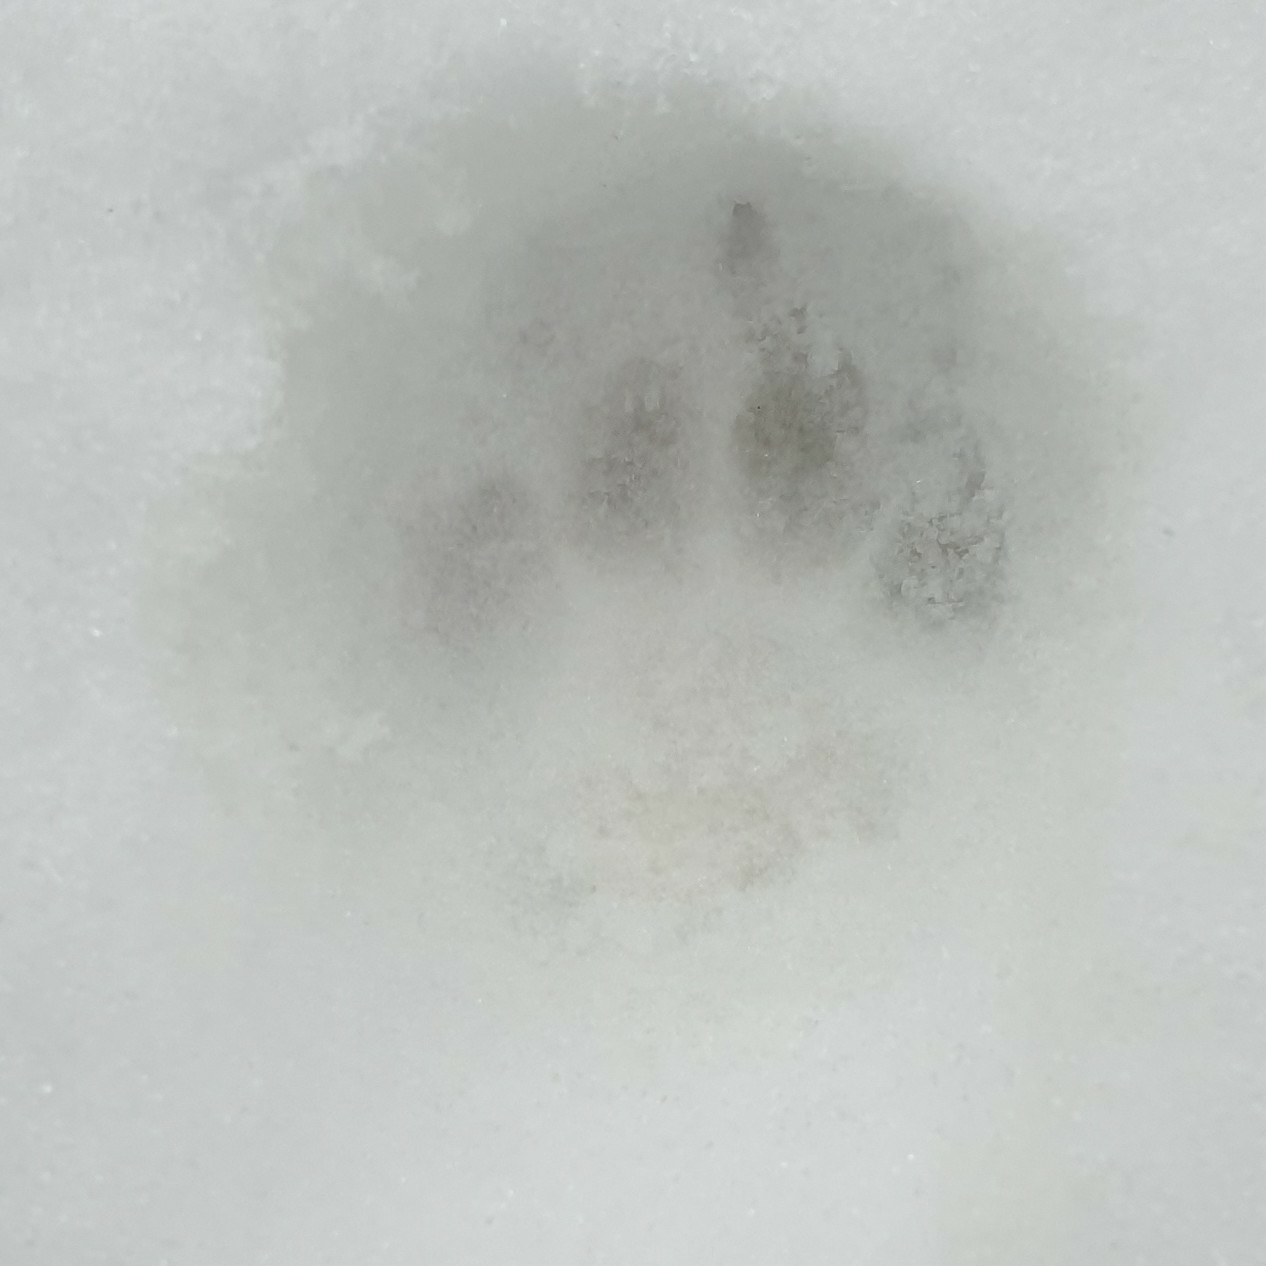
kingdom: Animalia
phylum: Chordata
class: Mammalia
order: Carnivora
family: Felidae
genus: Felis
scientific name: Felis catus
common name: Domestic cat
